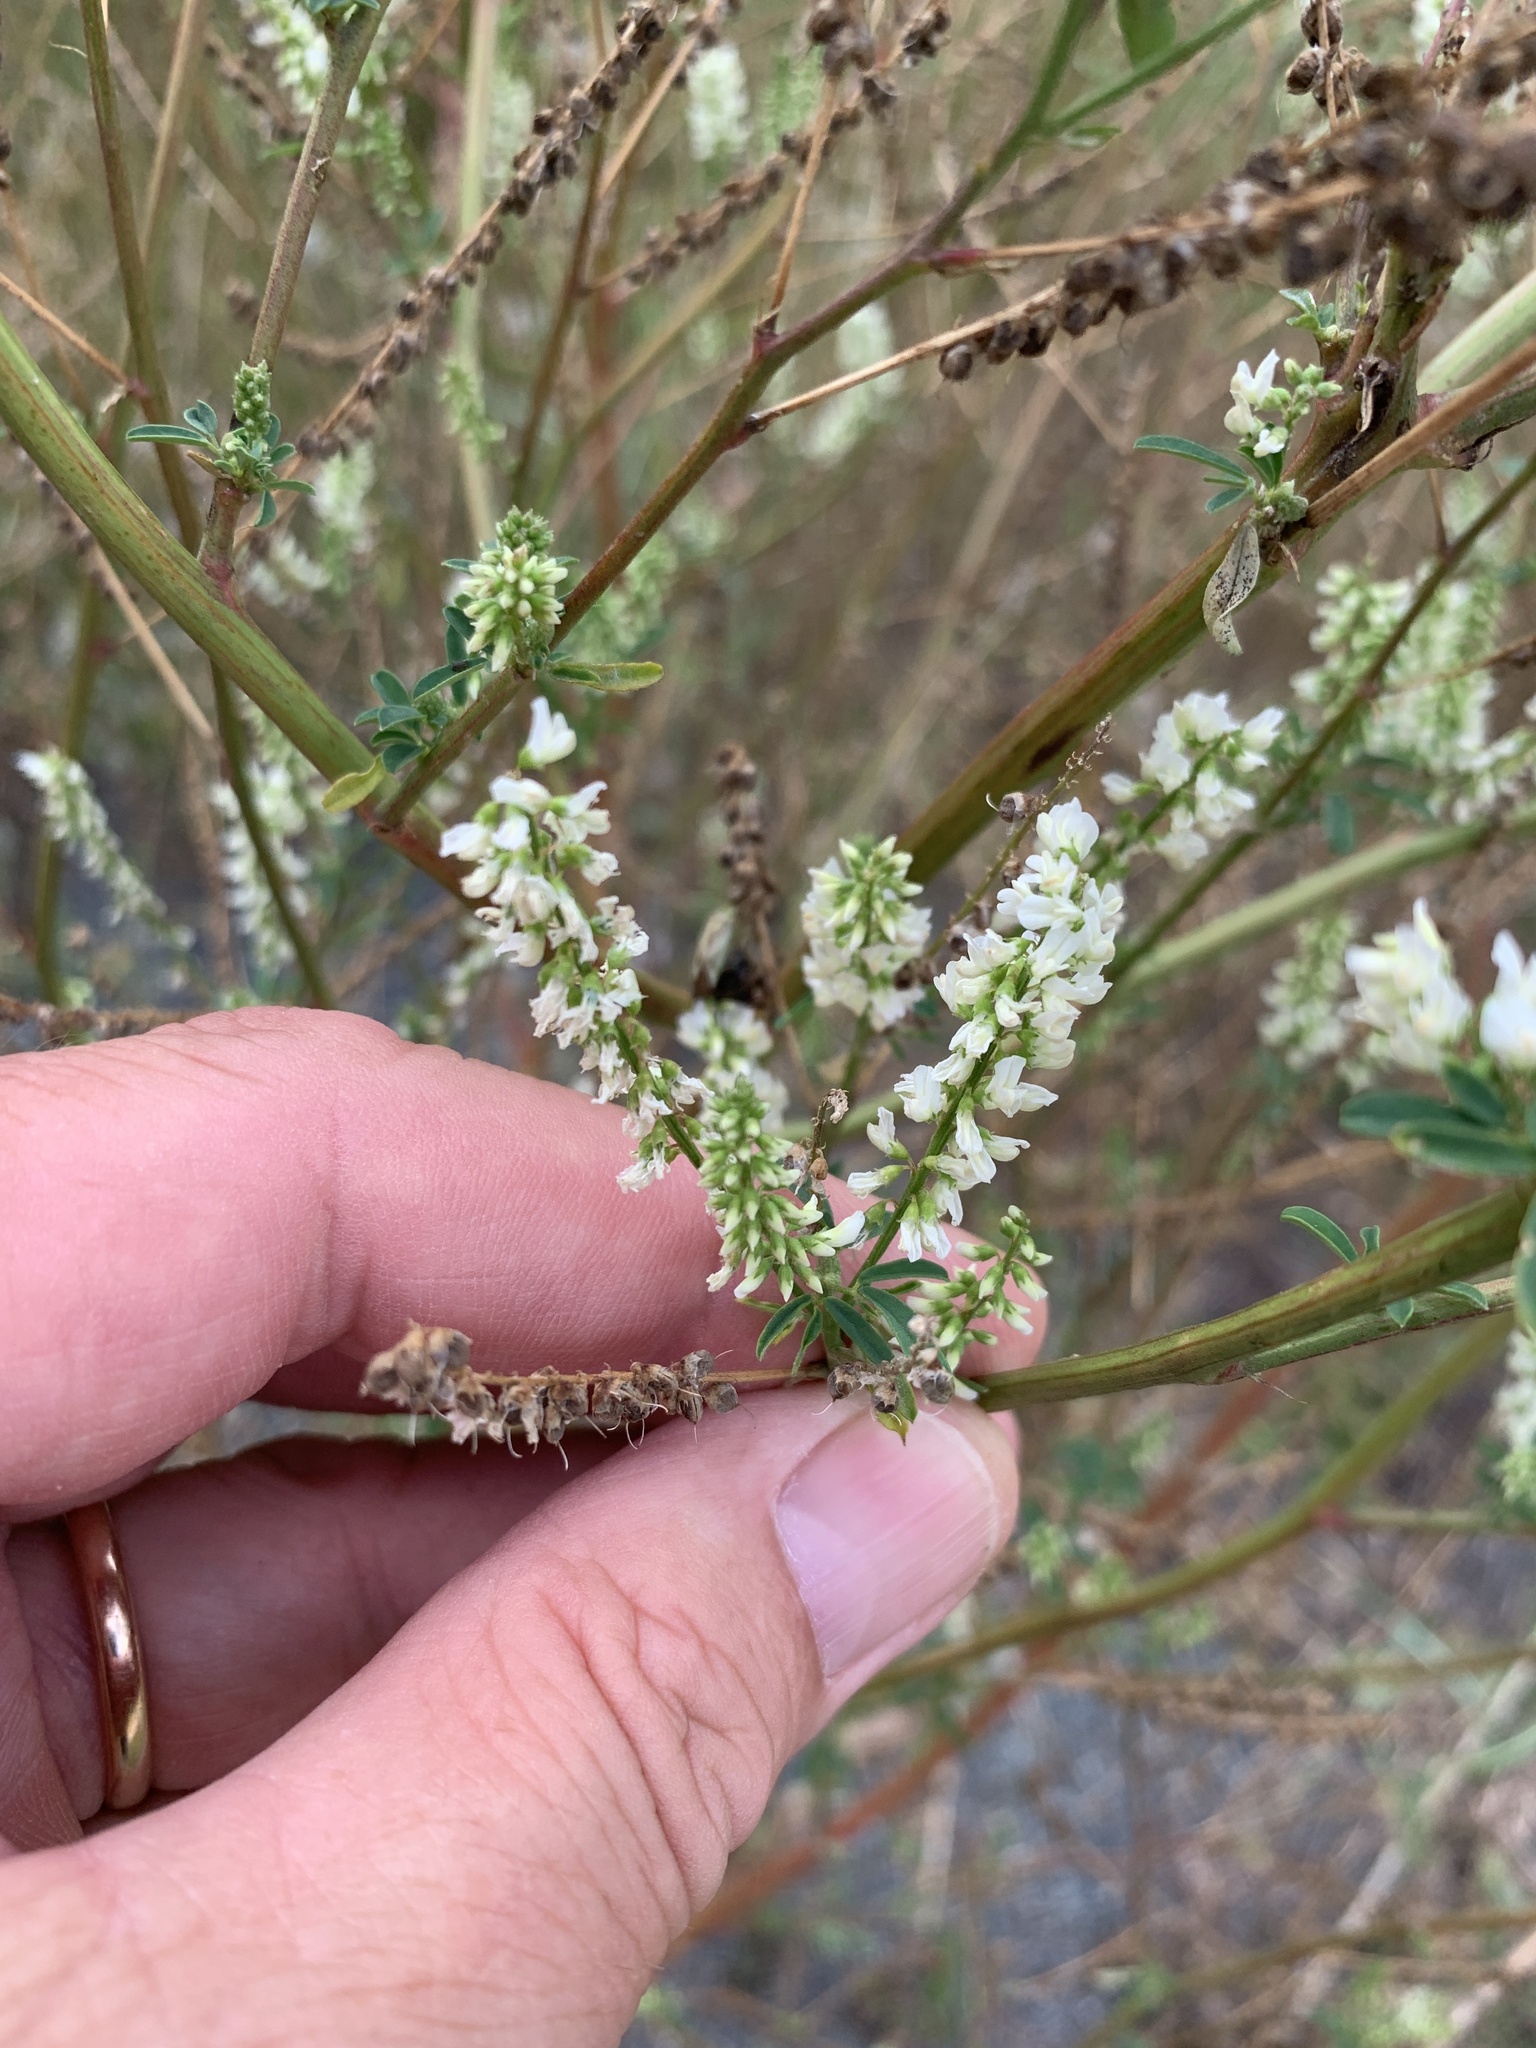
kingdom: Plantae
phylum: Tracheophyta
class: Magnoliopsida
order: Fabales
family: Fabaceae
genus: Melilotus
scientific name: Melilotus albus
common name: White melilot
